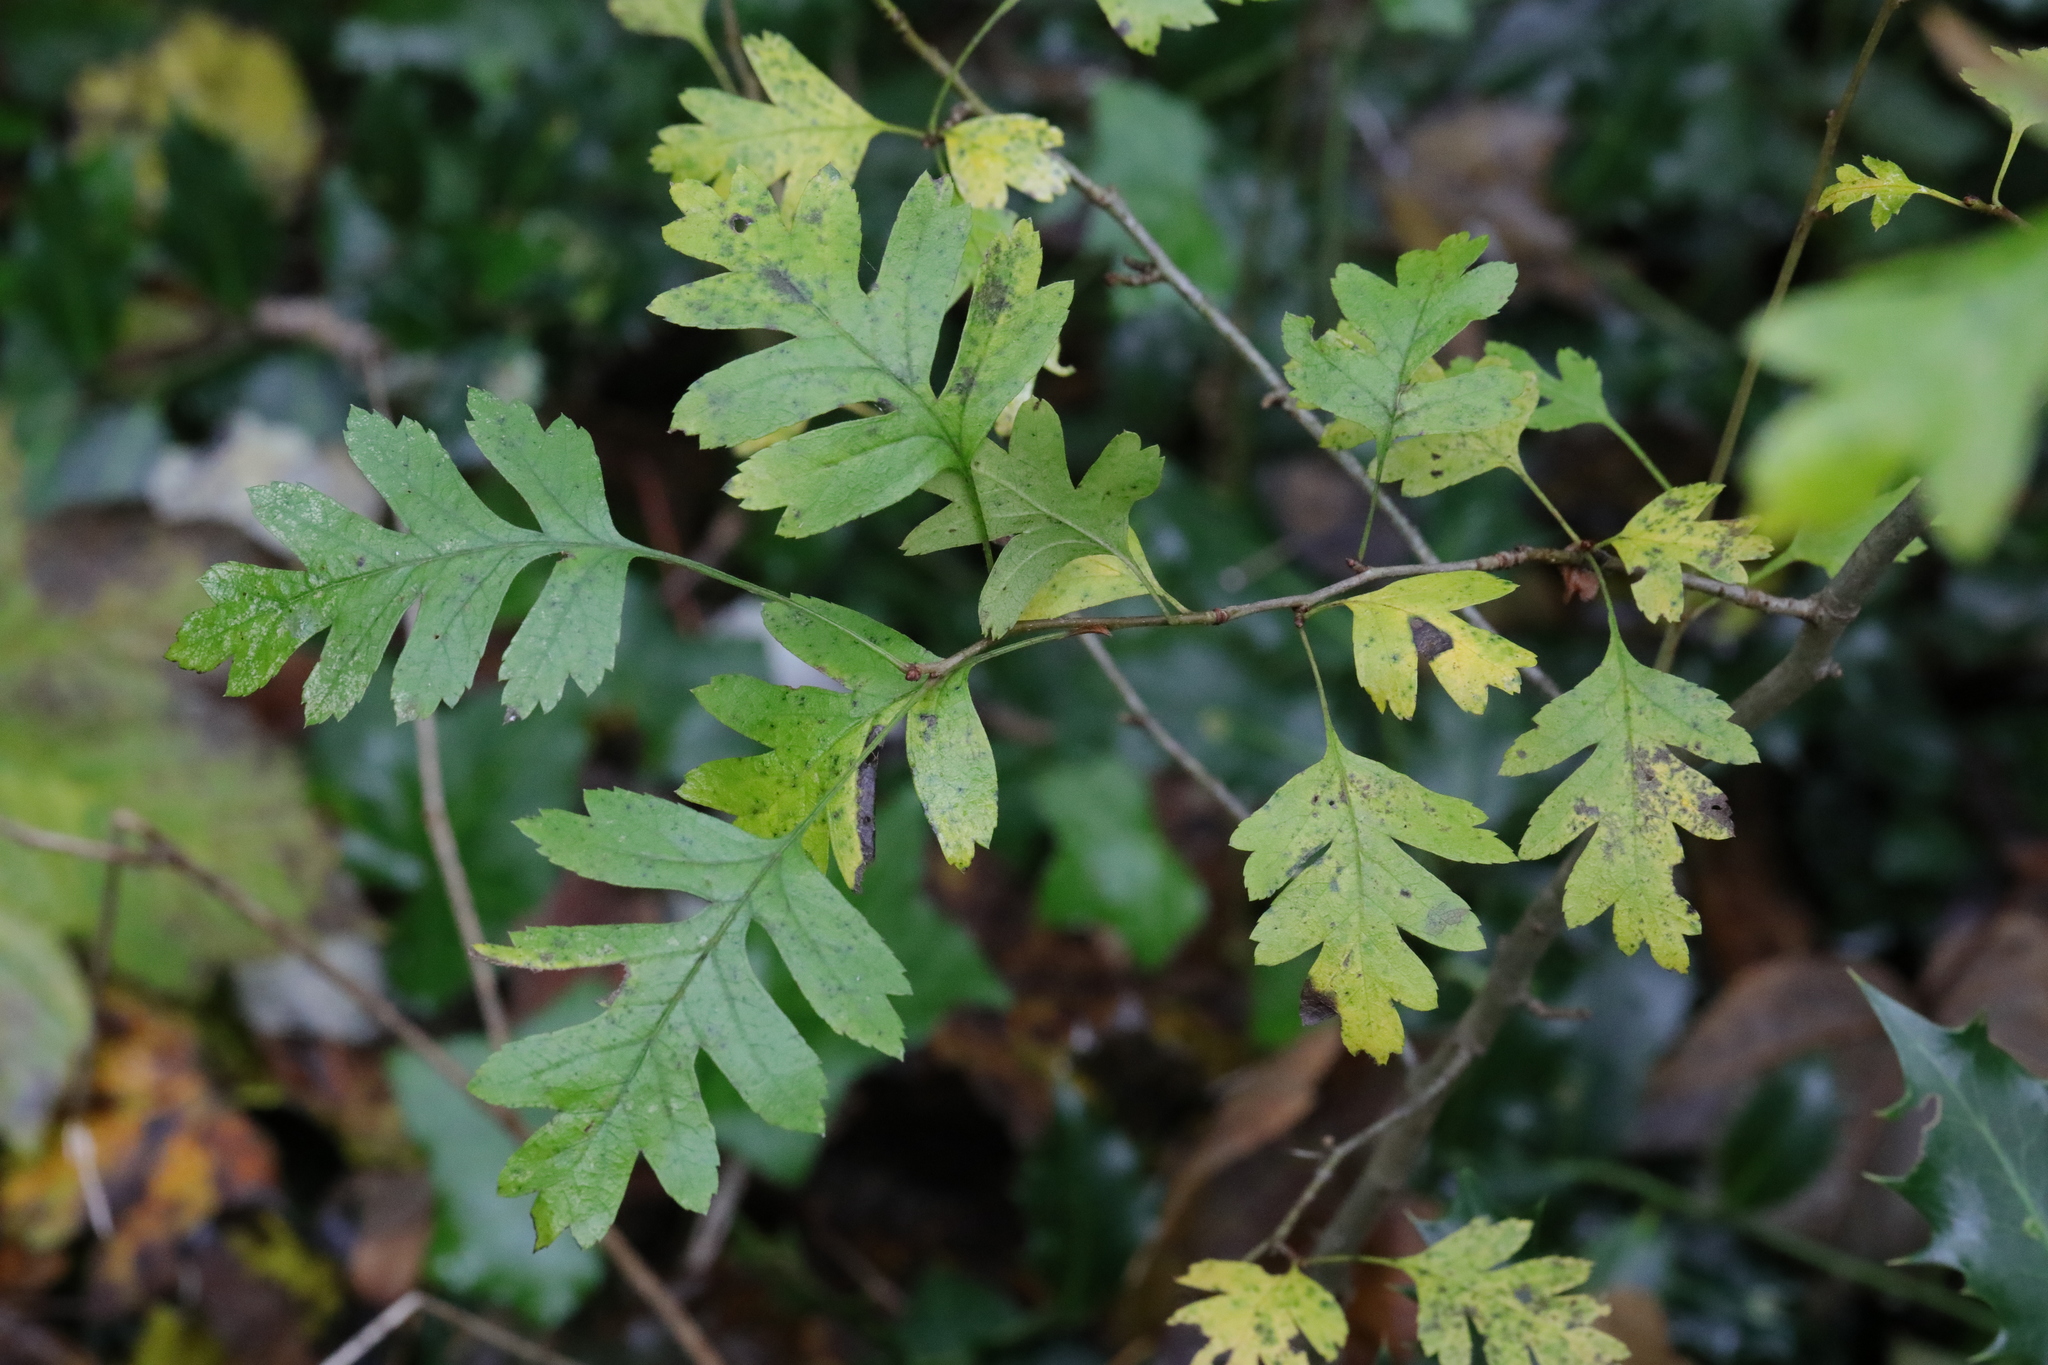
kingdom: Plantae
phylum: Tracheophyta
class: Magnoliopsida
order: Rosales
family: Rosaceae
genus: Crataegus
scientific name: Crataegus monogyna
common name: Hawthorn
